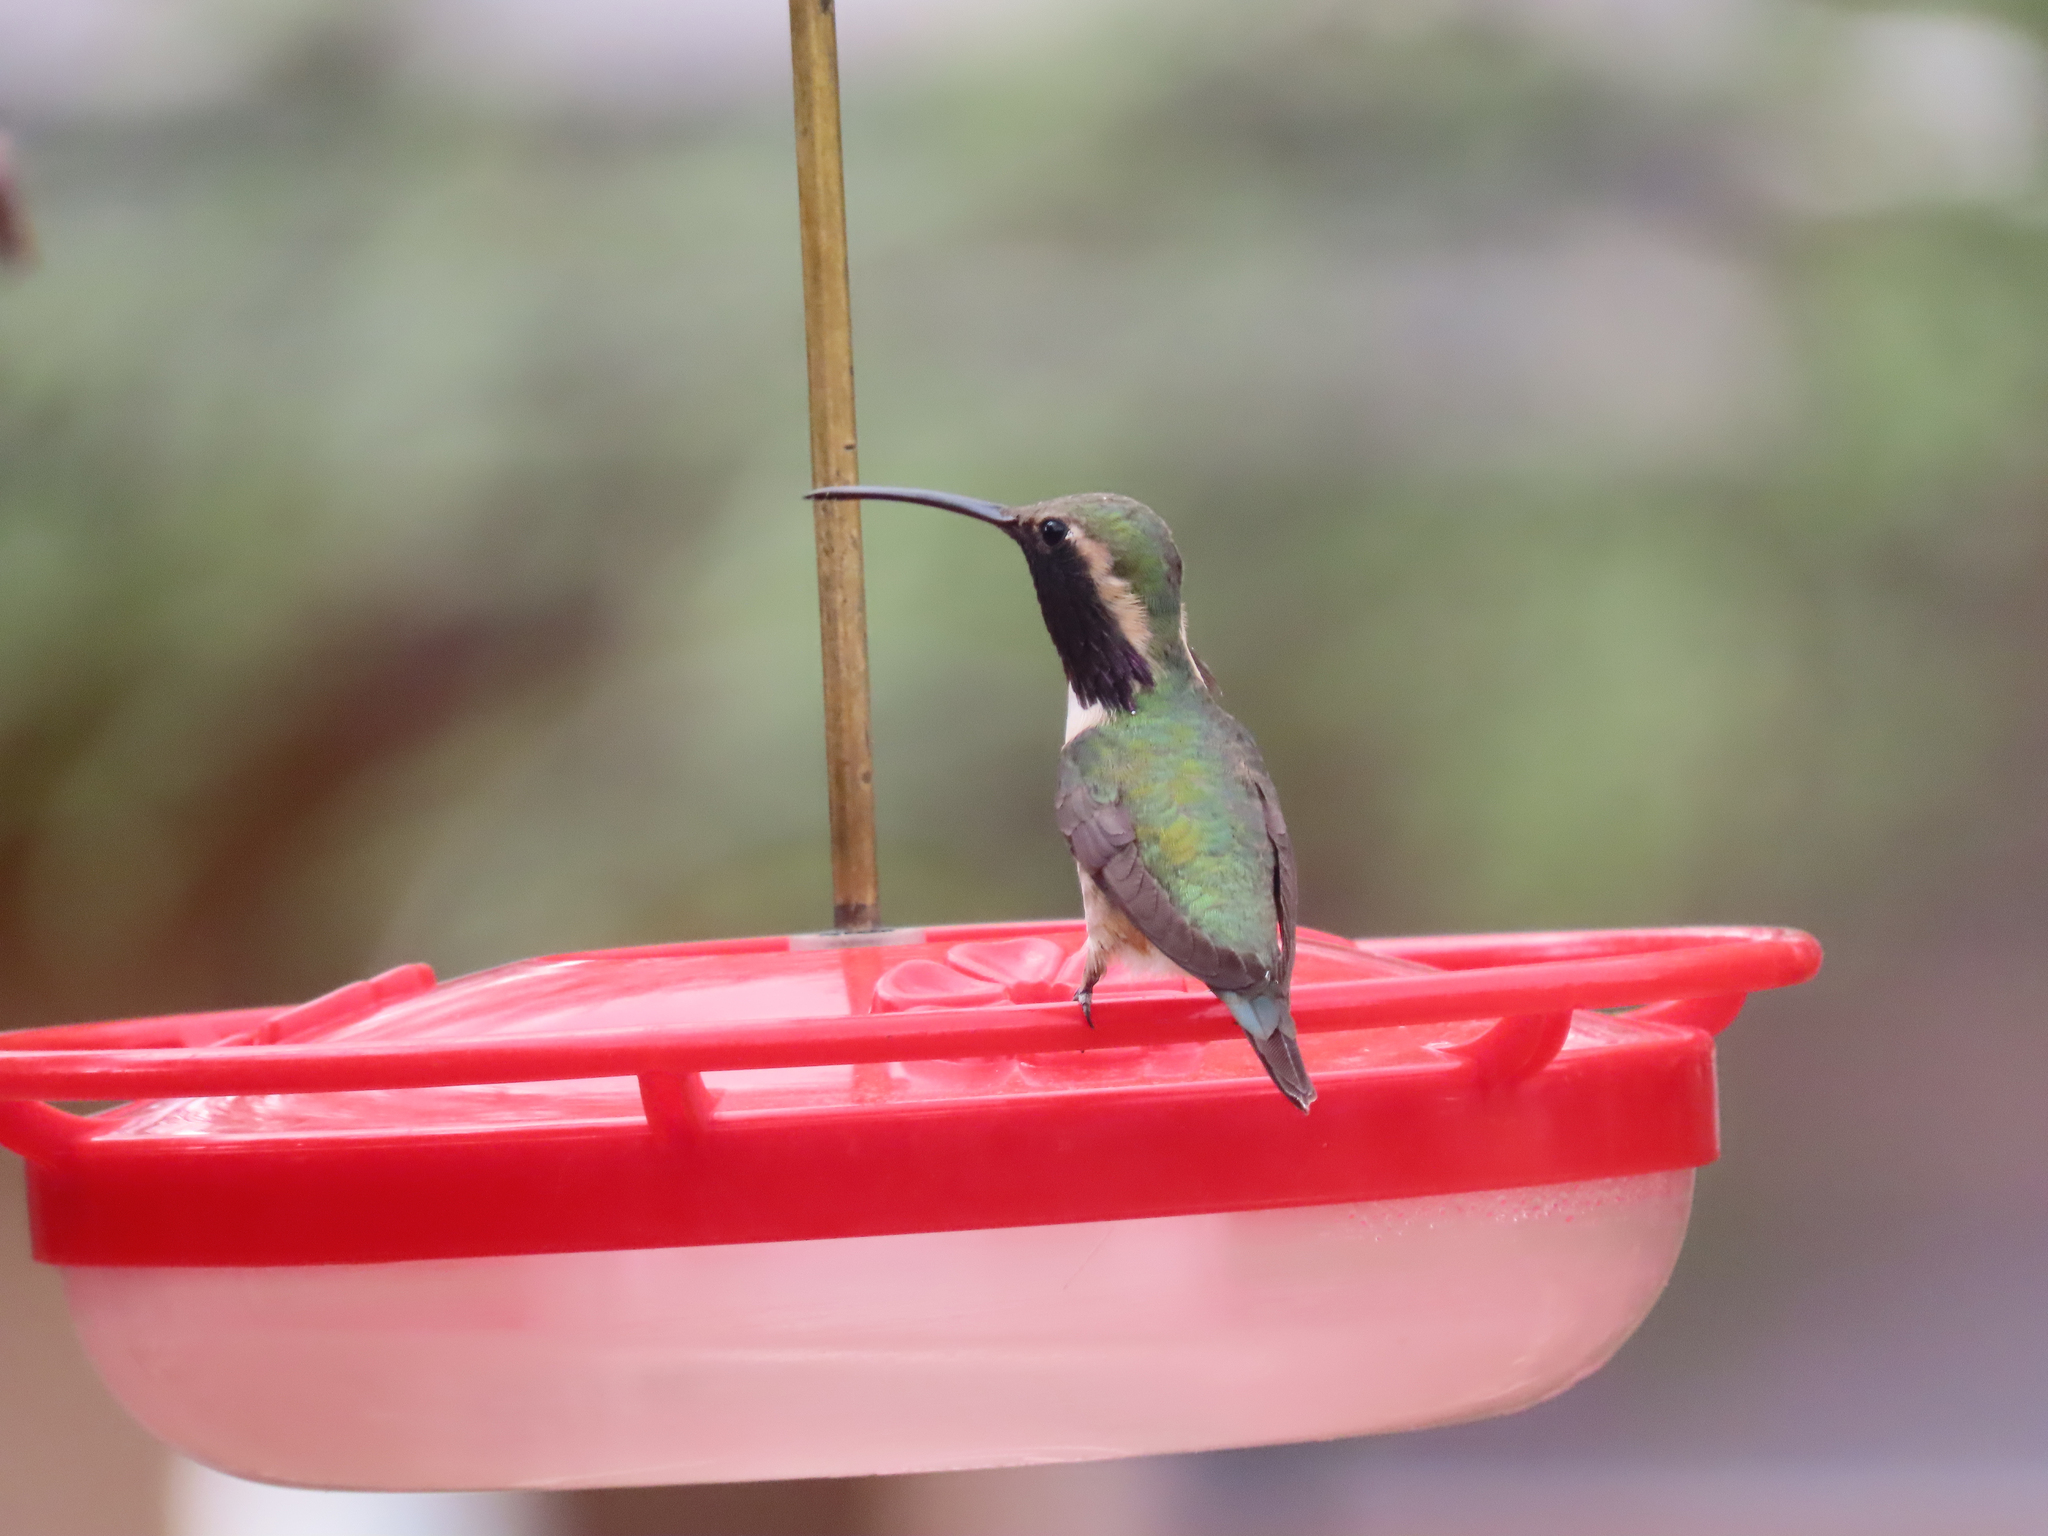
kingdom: Animalia
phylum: Chordata
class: Aves
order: Apodiformes
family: Trochilidae
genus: Calothorax
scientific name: Calothorax lucifer
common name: Lucifer sheartail
